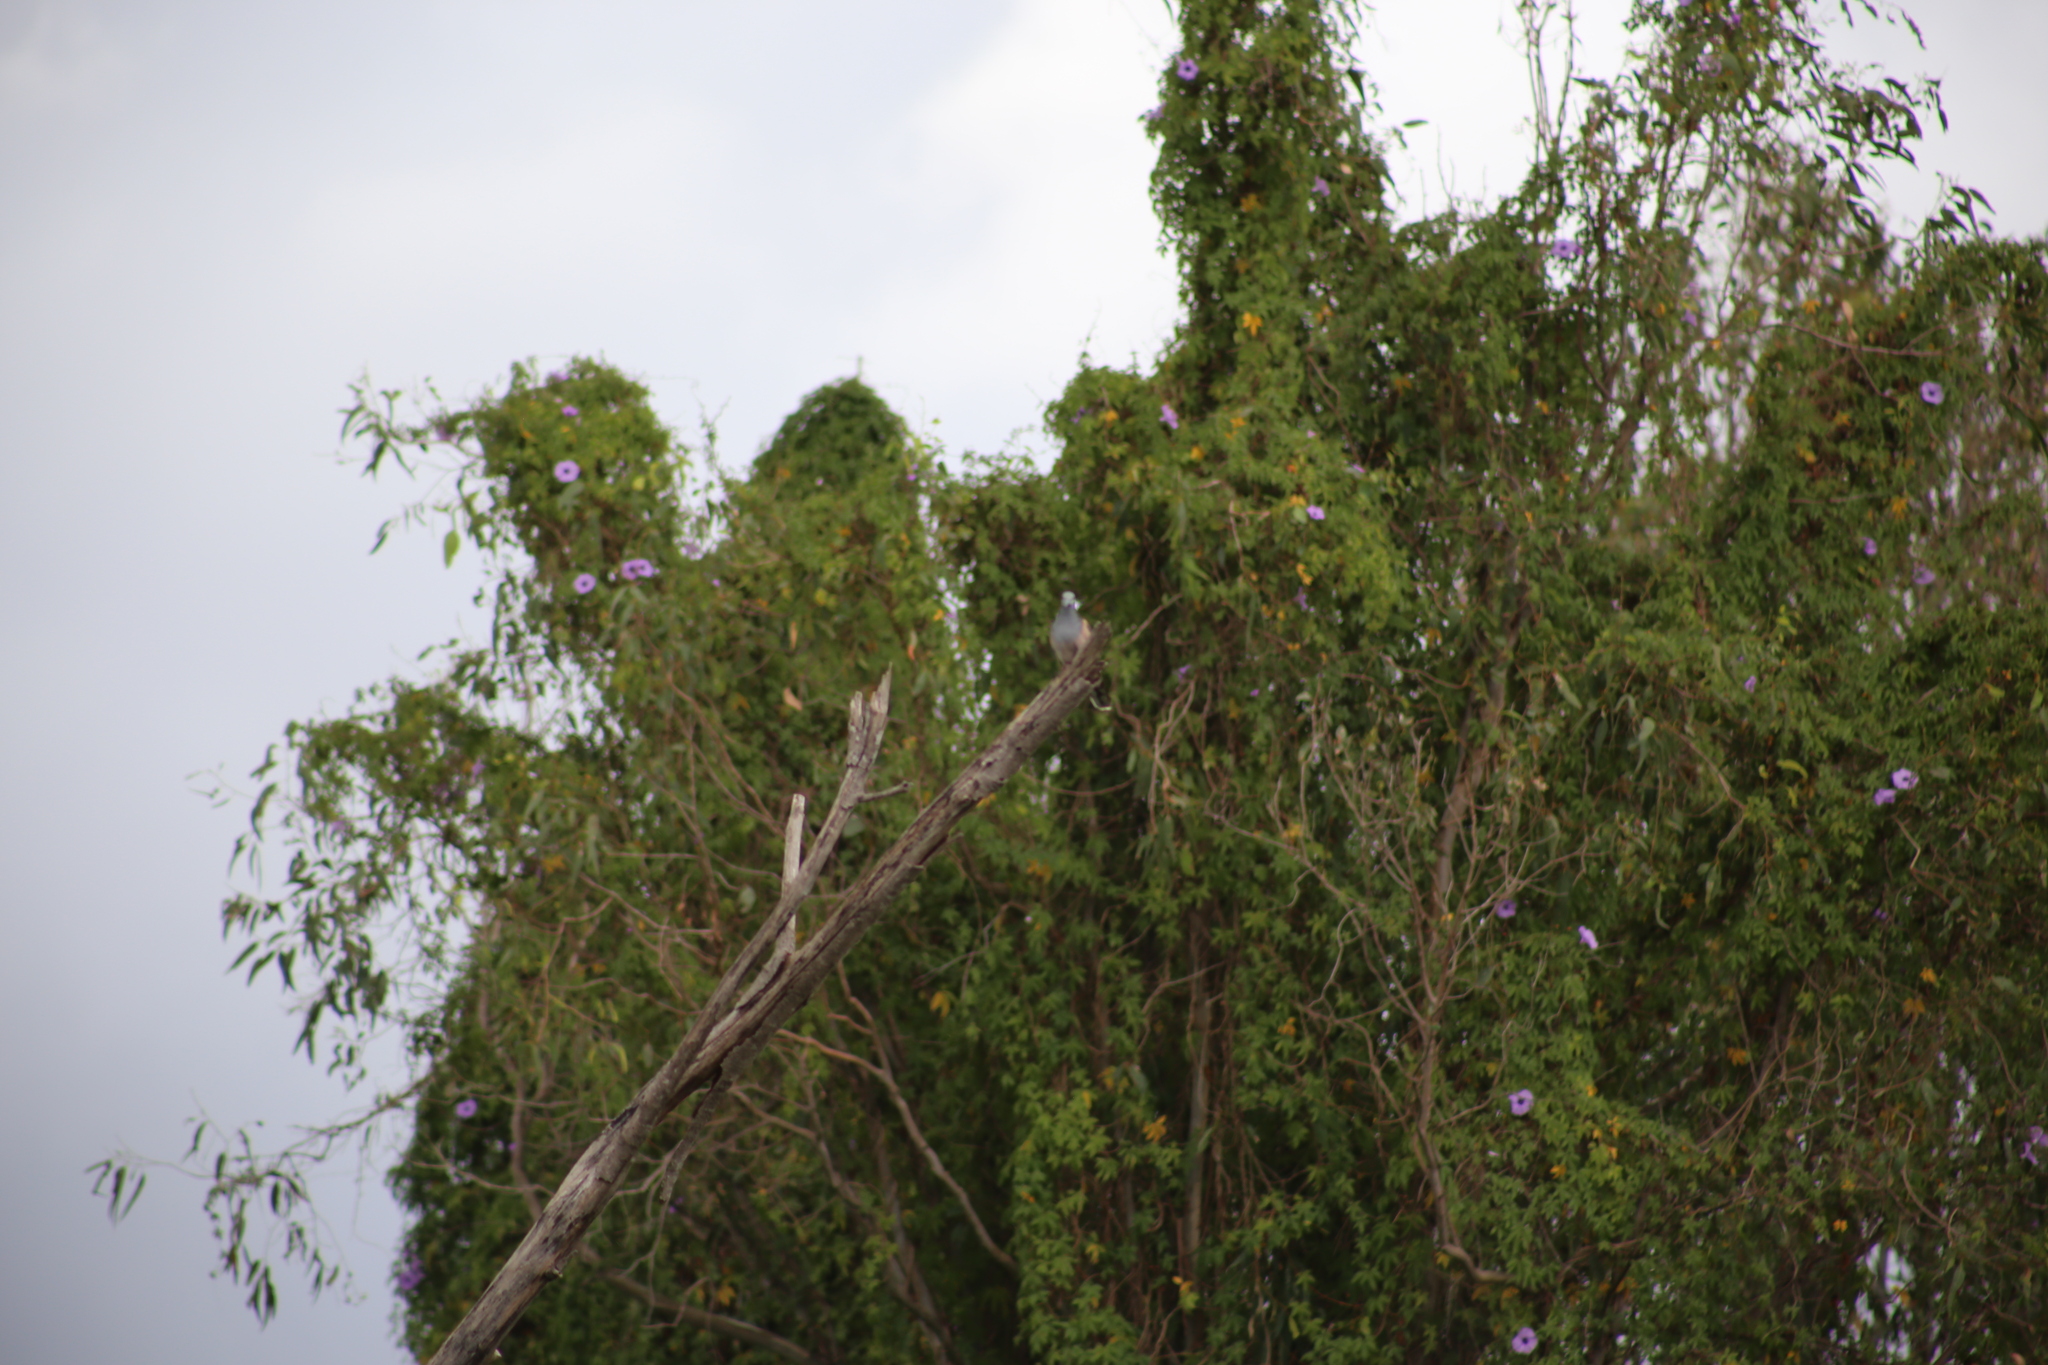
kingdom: Animalia
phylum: Chordata
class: Aves
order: Columbiformes
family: Columbidae
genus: Geopelia
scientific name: Geopelia humeralis
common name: Bar-shouldered dove
